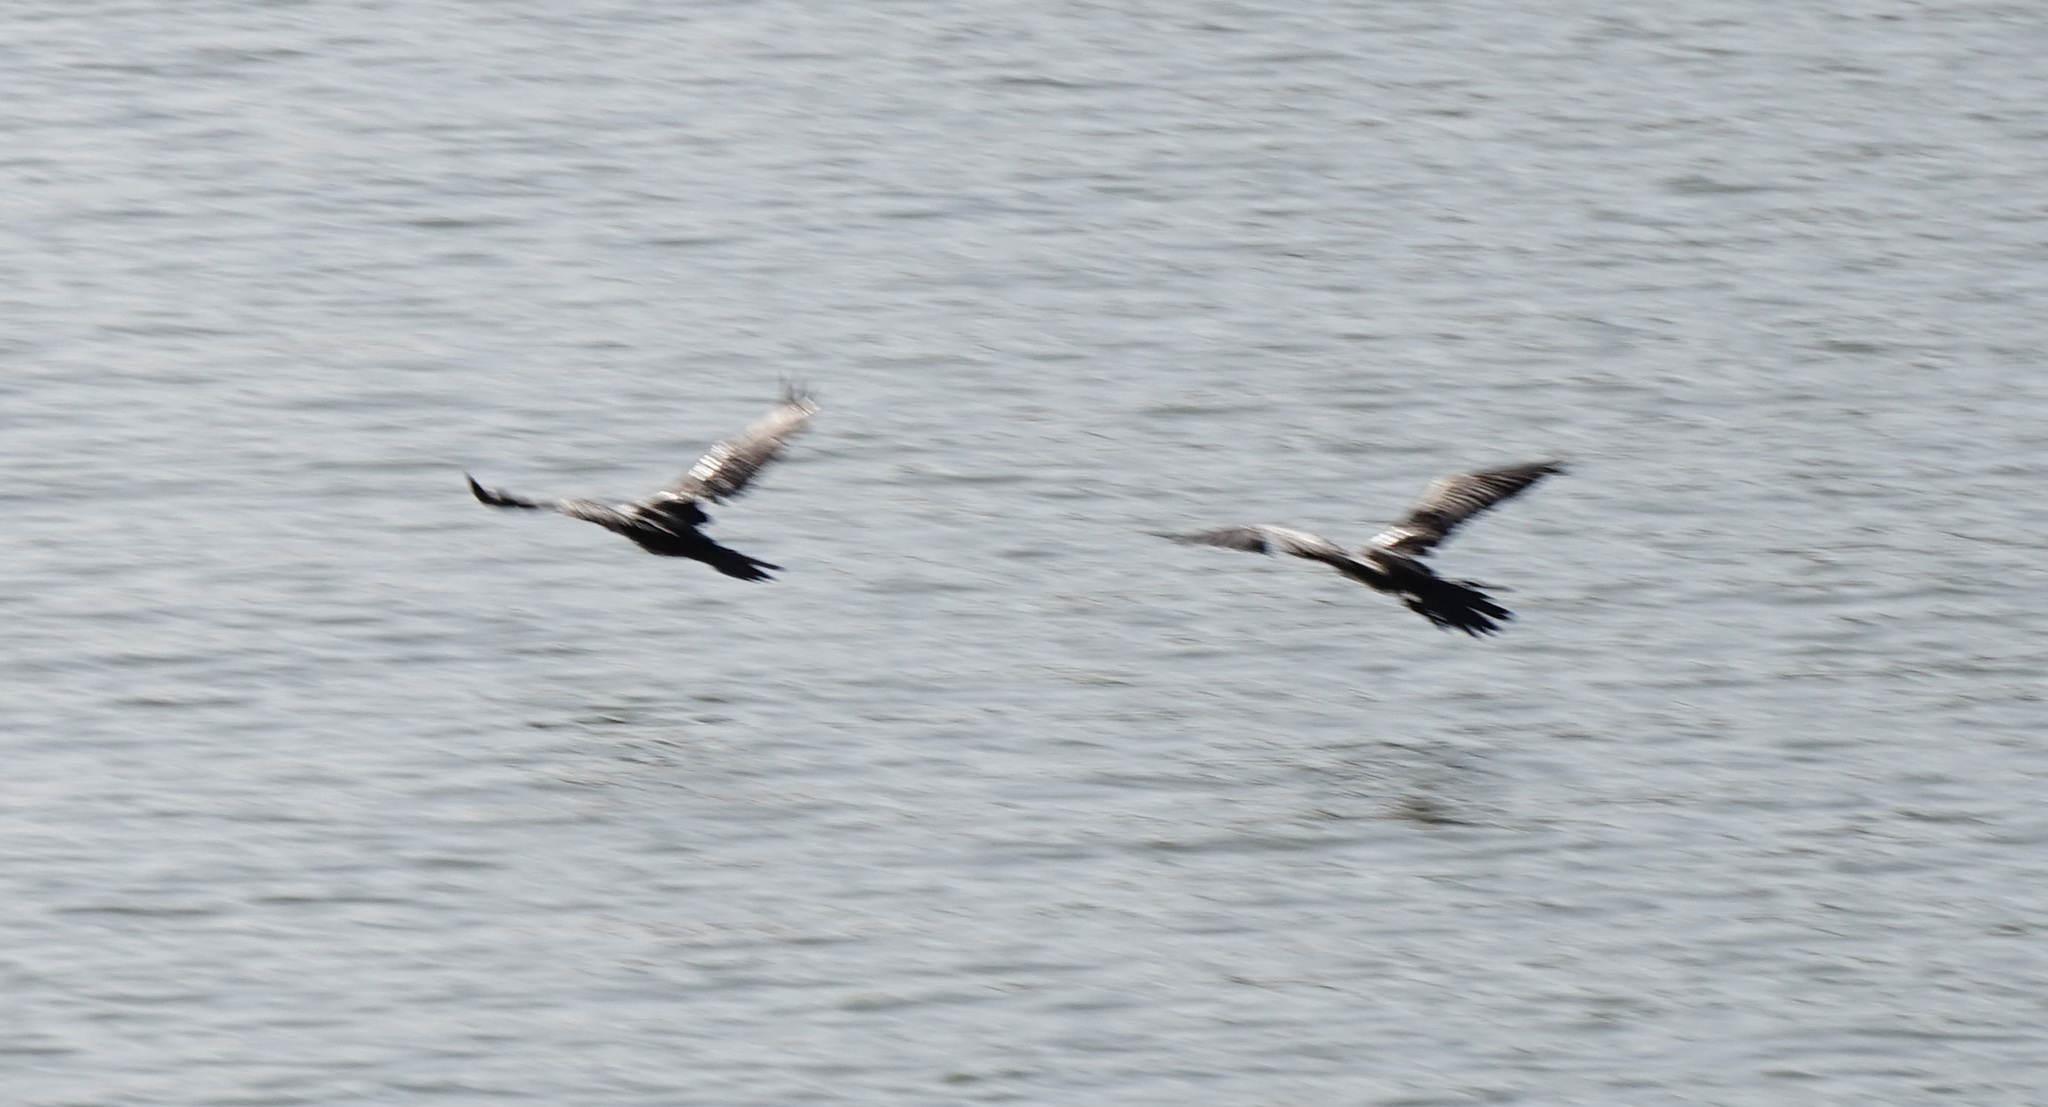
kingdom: Animalia
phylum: Chordata
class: Aves
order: Suliformes
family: Phalacrocoracidae
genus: Microcarbo
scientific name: Microcarbo africanus
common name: Long-tailed cormorant
